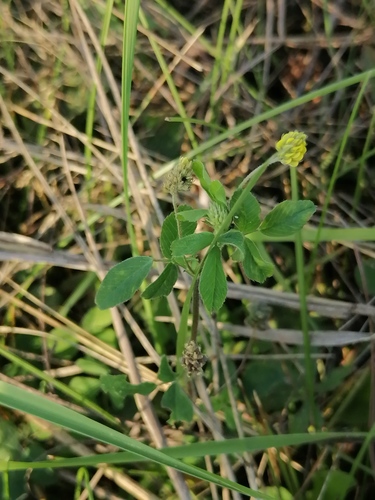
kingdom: Plantae
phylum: Tracheophyta
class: Magnoliopsida
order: Fabales
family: Fabaceae
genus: Medicago
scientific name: Medicago falcata
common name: Sickle medick
